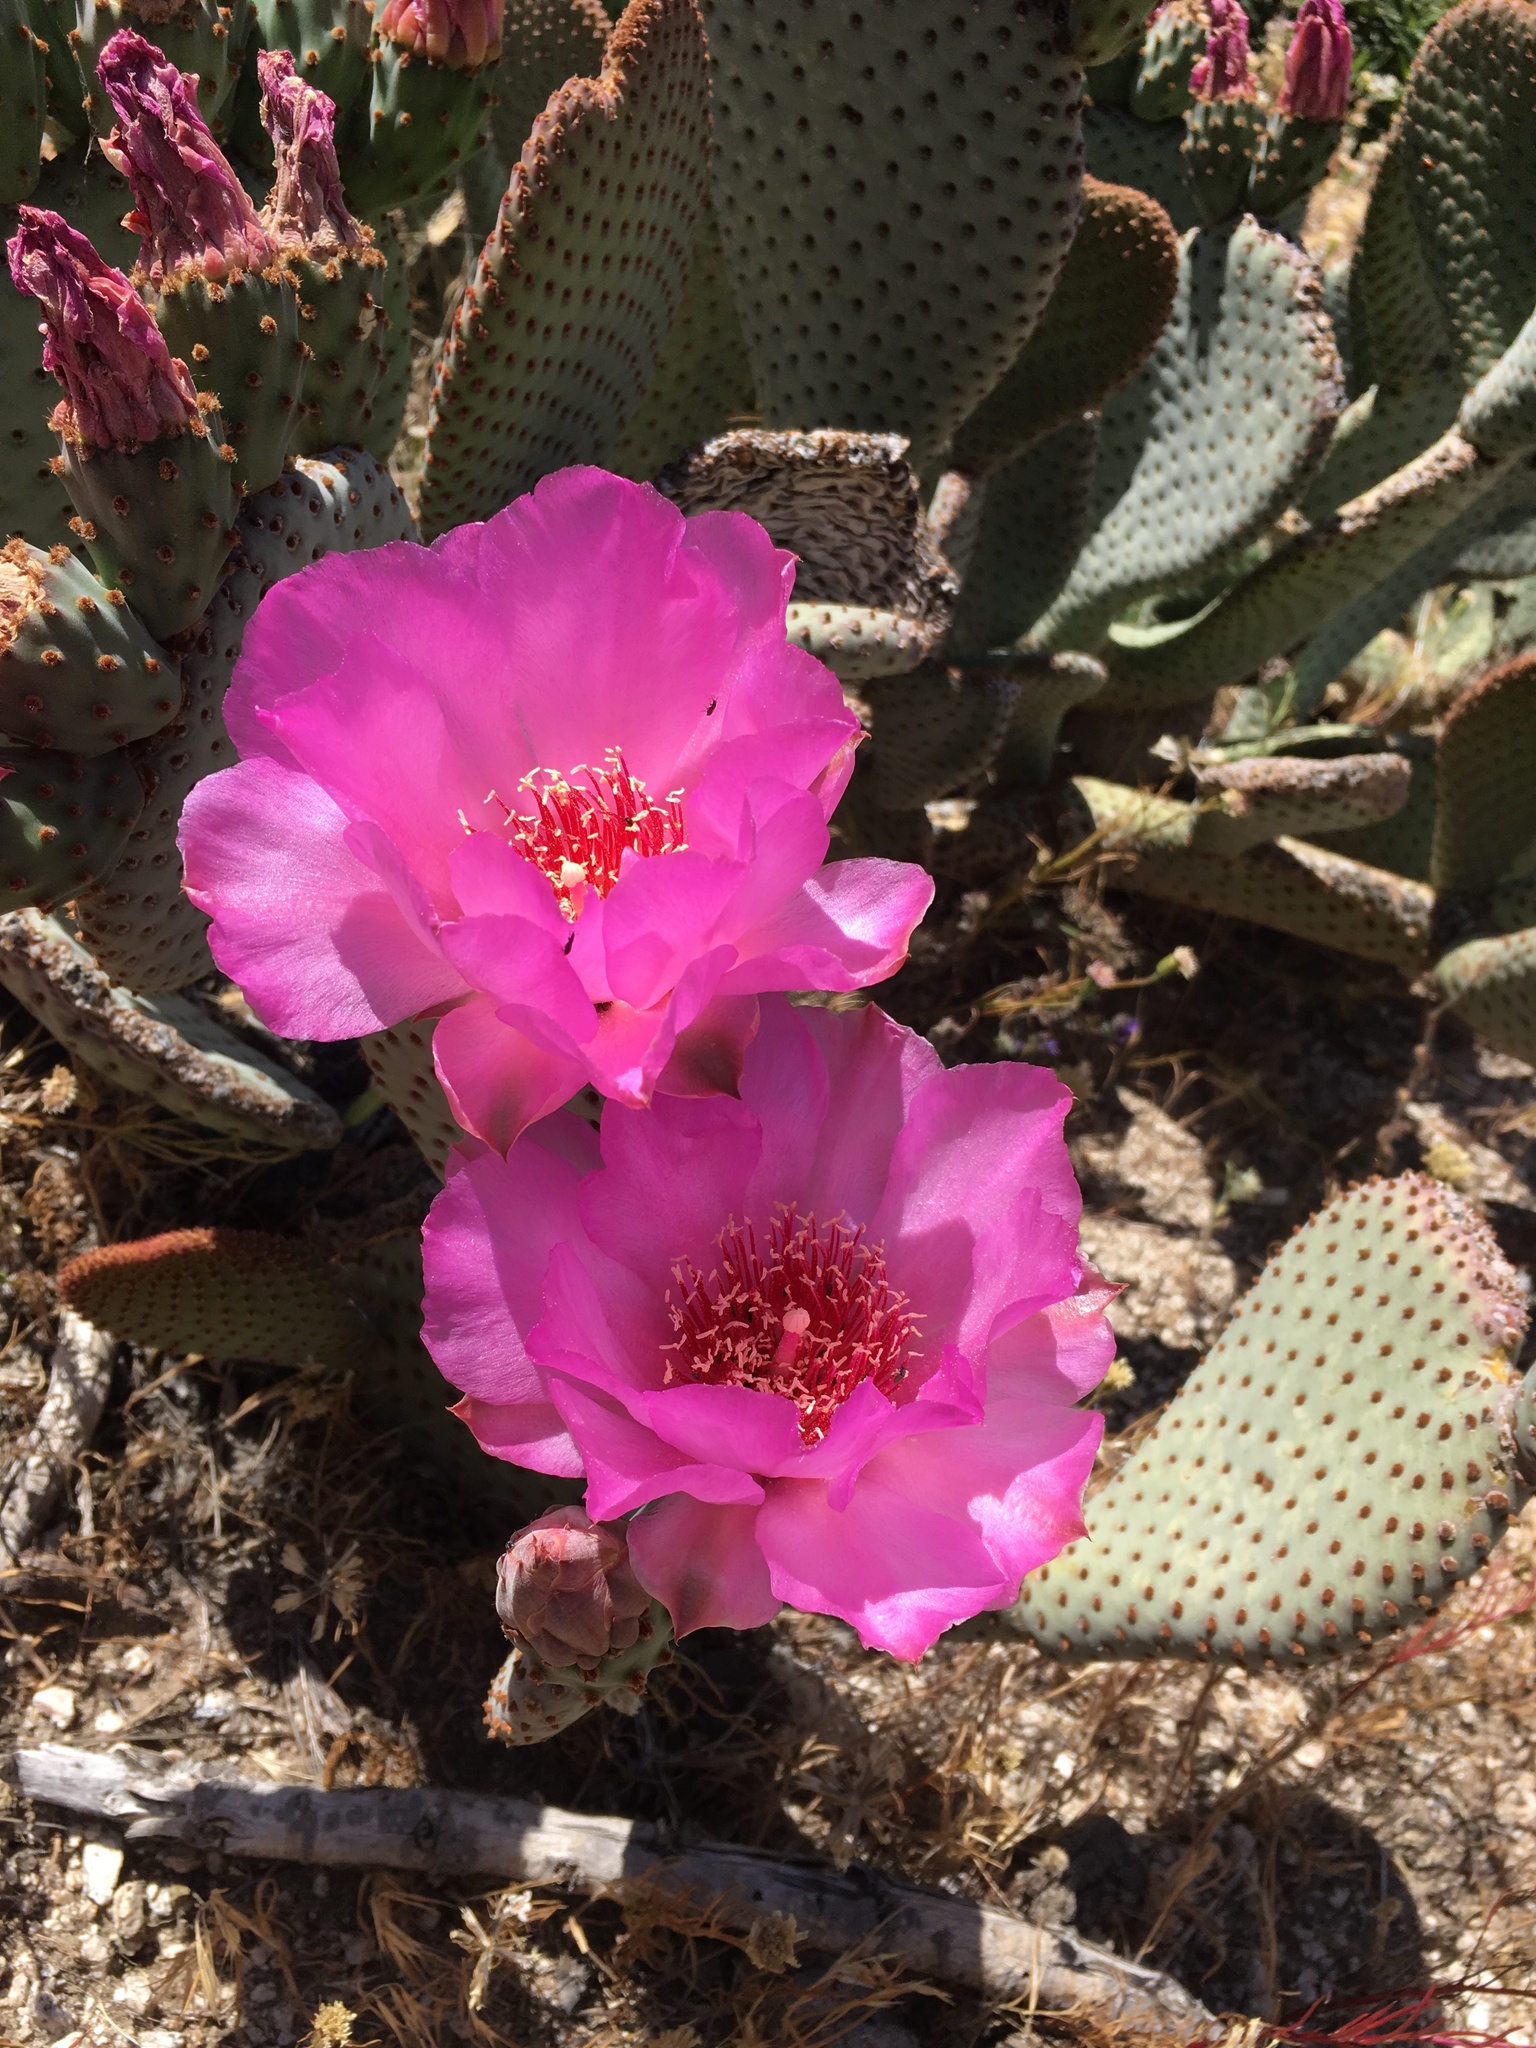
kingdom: Plantae
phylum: Tracheophyta
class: Magnoliopsida
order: Caryophyllales
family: Cactaceae
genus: Opuntia
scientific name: Opuntia basilaris
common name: Beavertail prickly-pear
